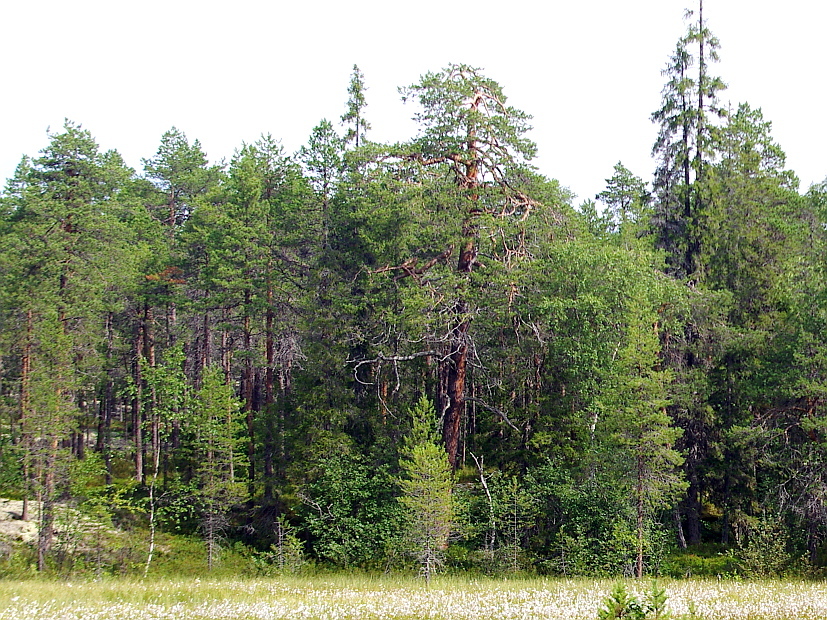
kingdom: Plantae
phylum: Tracheophyta
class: Pinopsida
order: Pinales
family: Pinaceae
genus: Pinus
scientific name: Pinus sylvestris
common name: Scots pine
